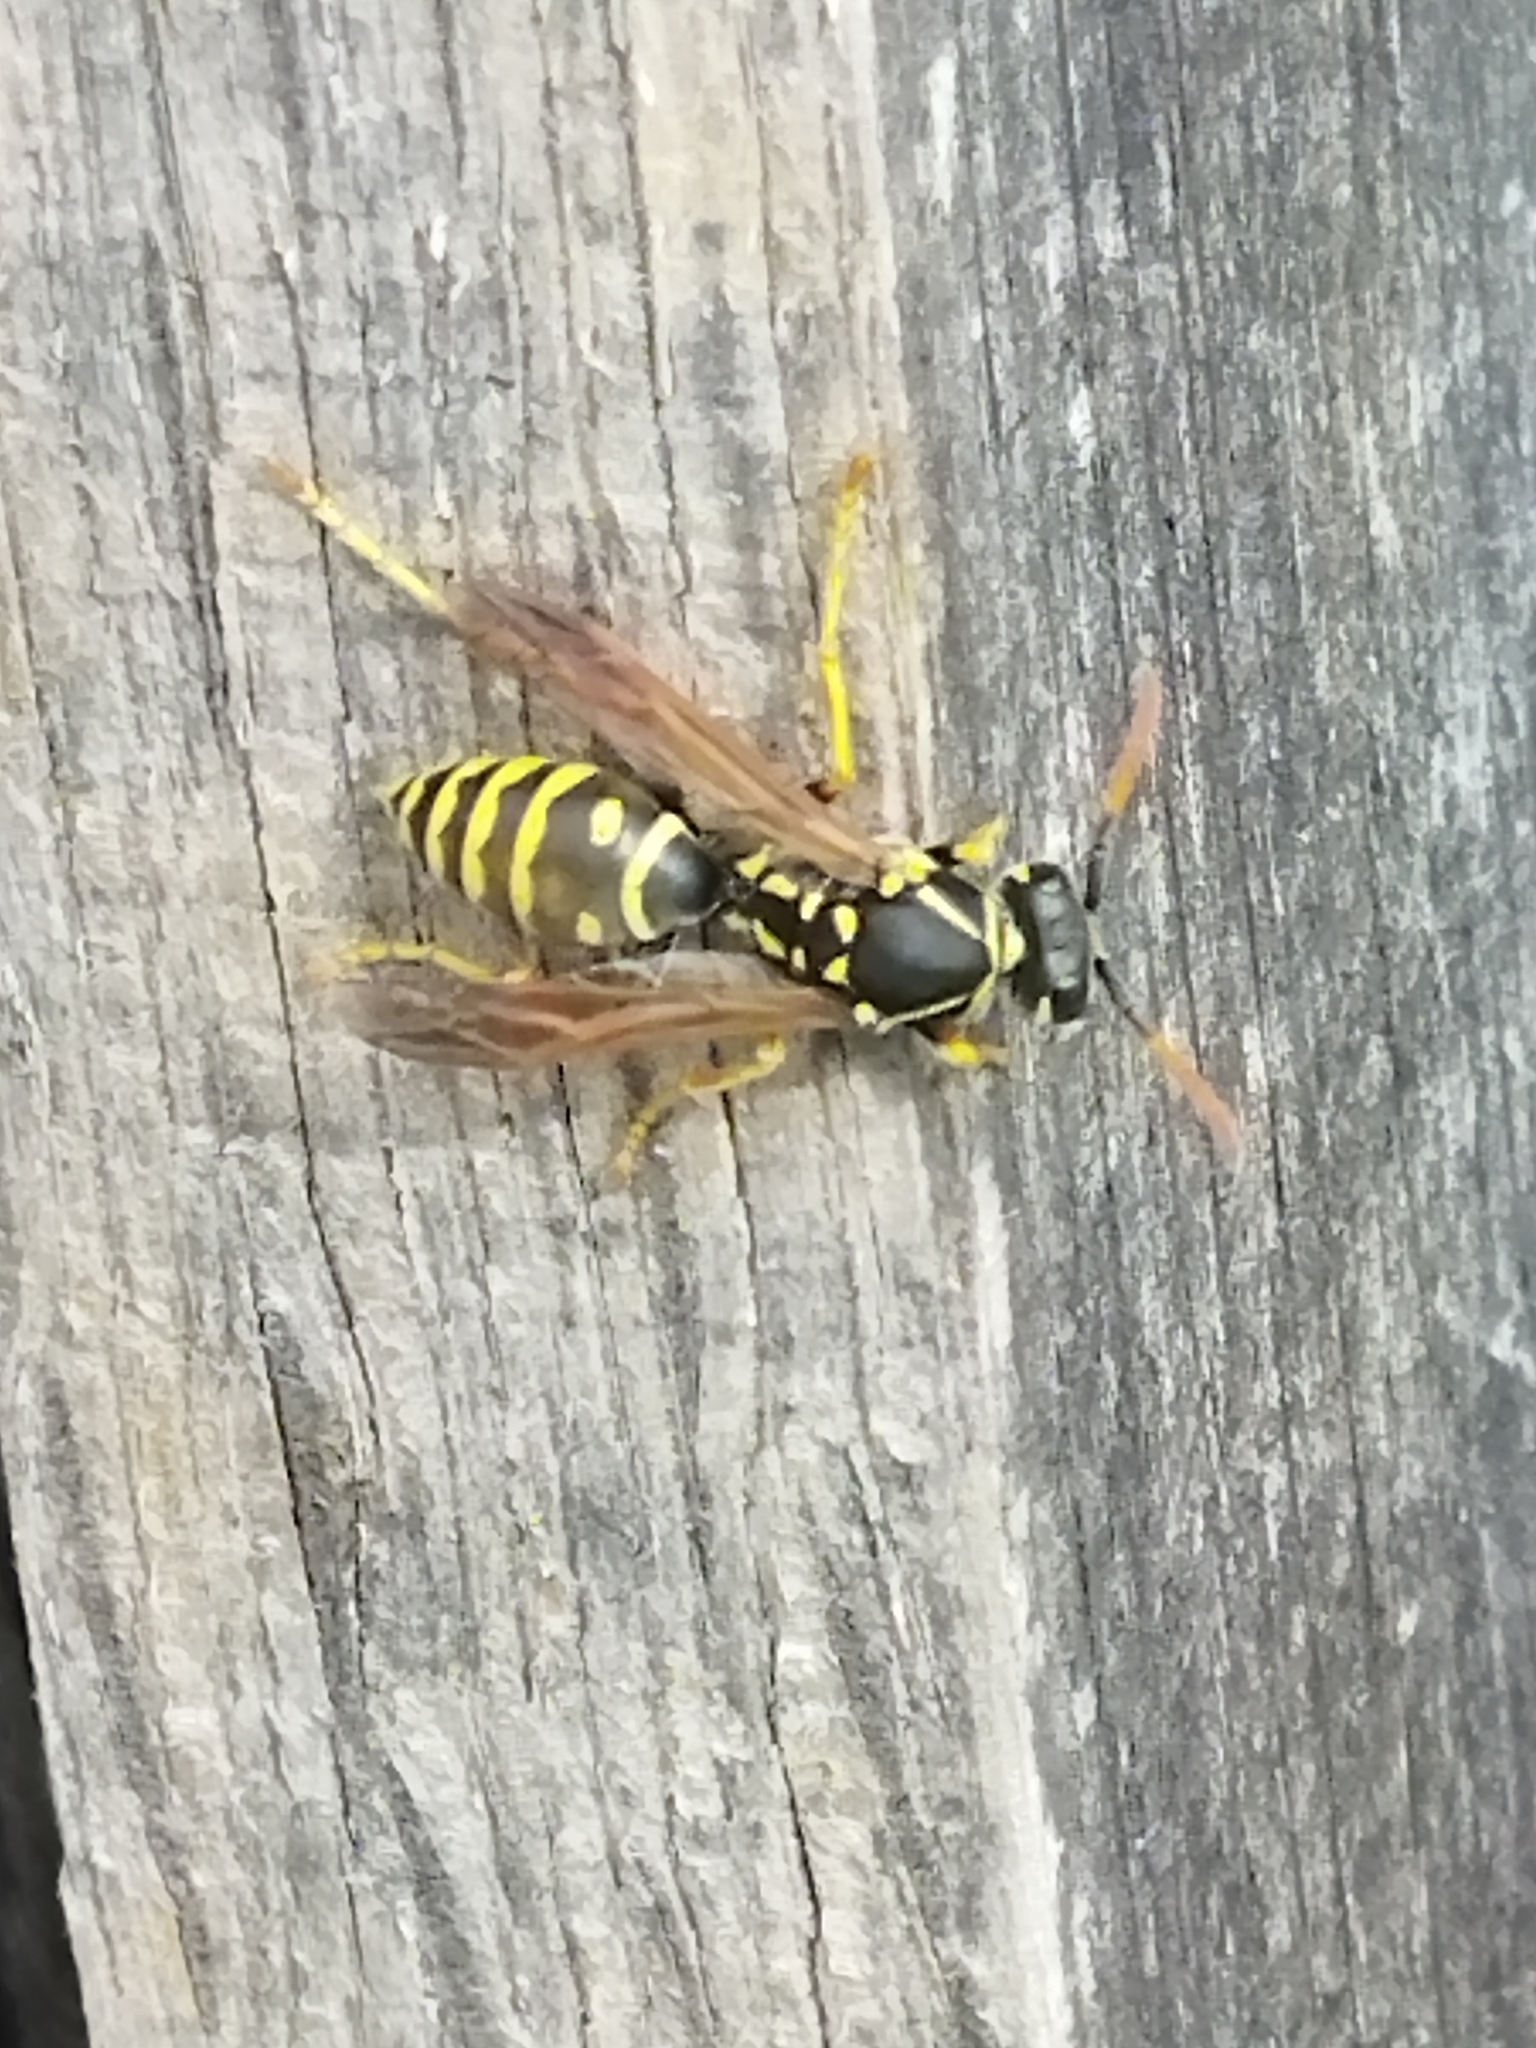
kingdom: Animalia
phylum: Arthropoda
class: Insecta
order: Hymenoptera
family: Eumenidae
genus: Polistes
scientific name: Polistes nimpha
